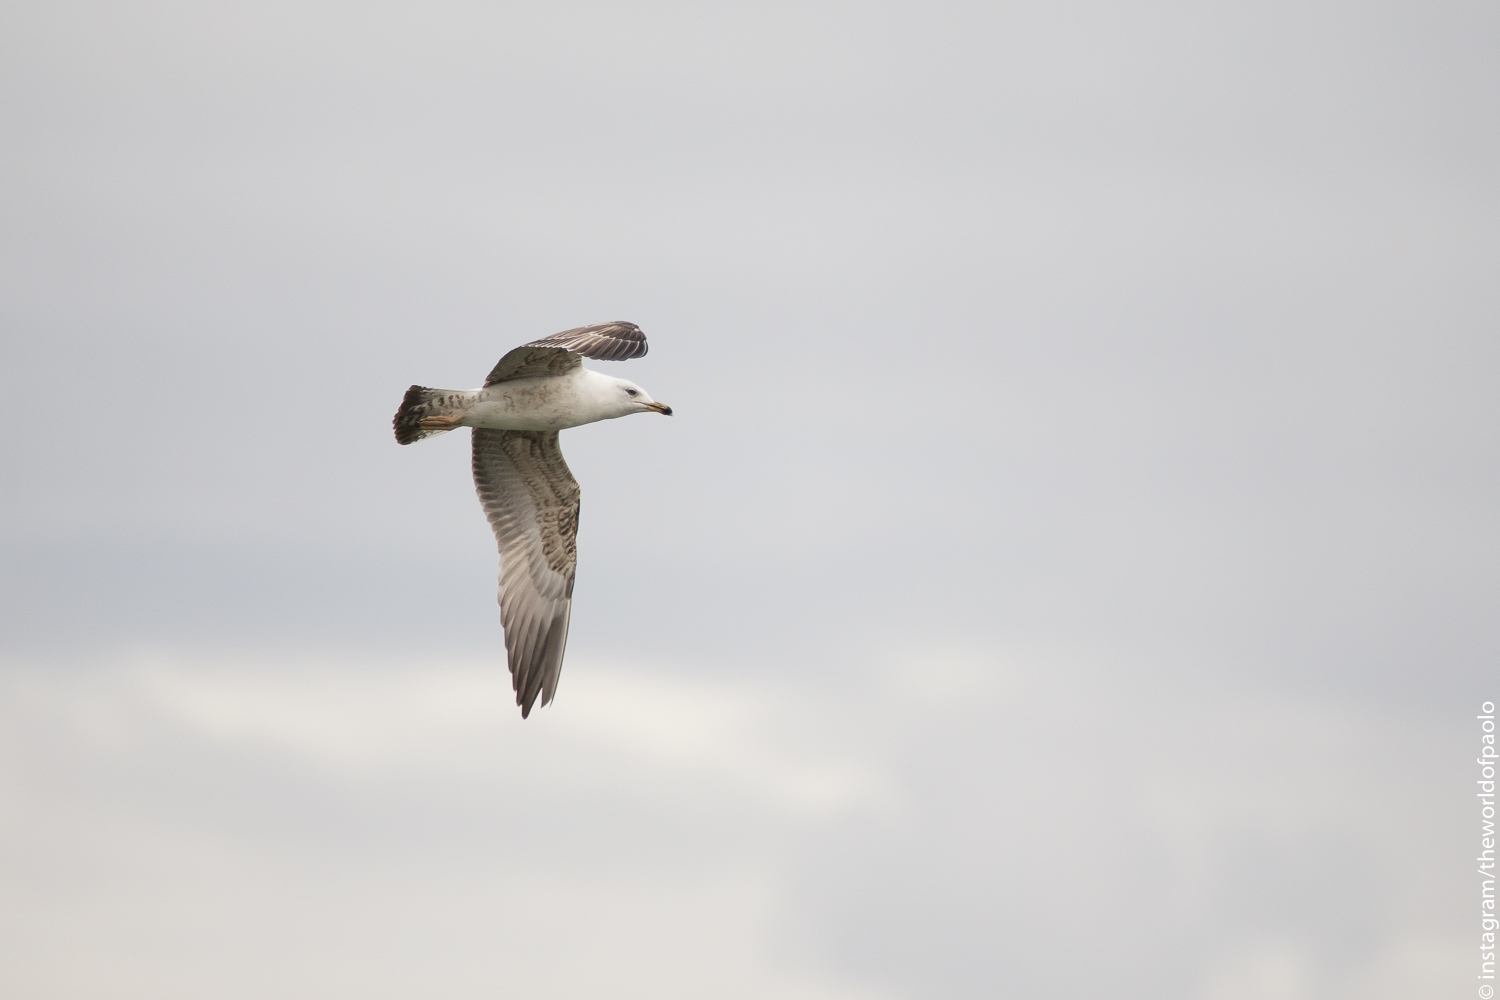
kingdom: Animalia
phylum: Chordata
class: Aves
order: Charadriiformes
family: Laridae
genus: Larus
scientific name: Larus michahellis
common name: Yellow-legged gull
